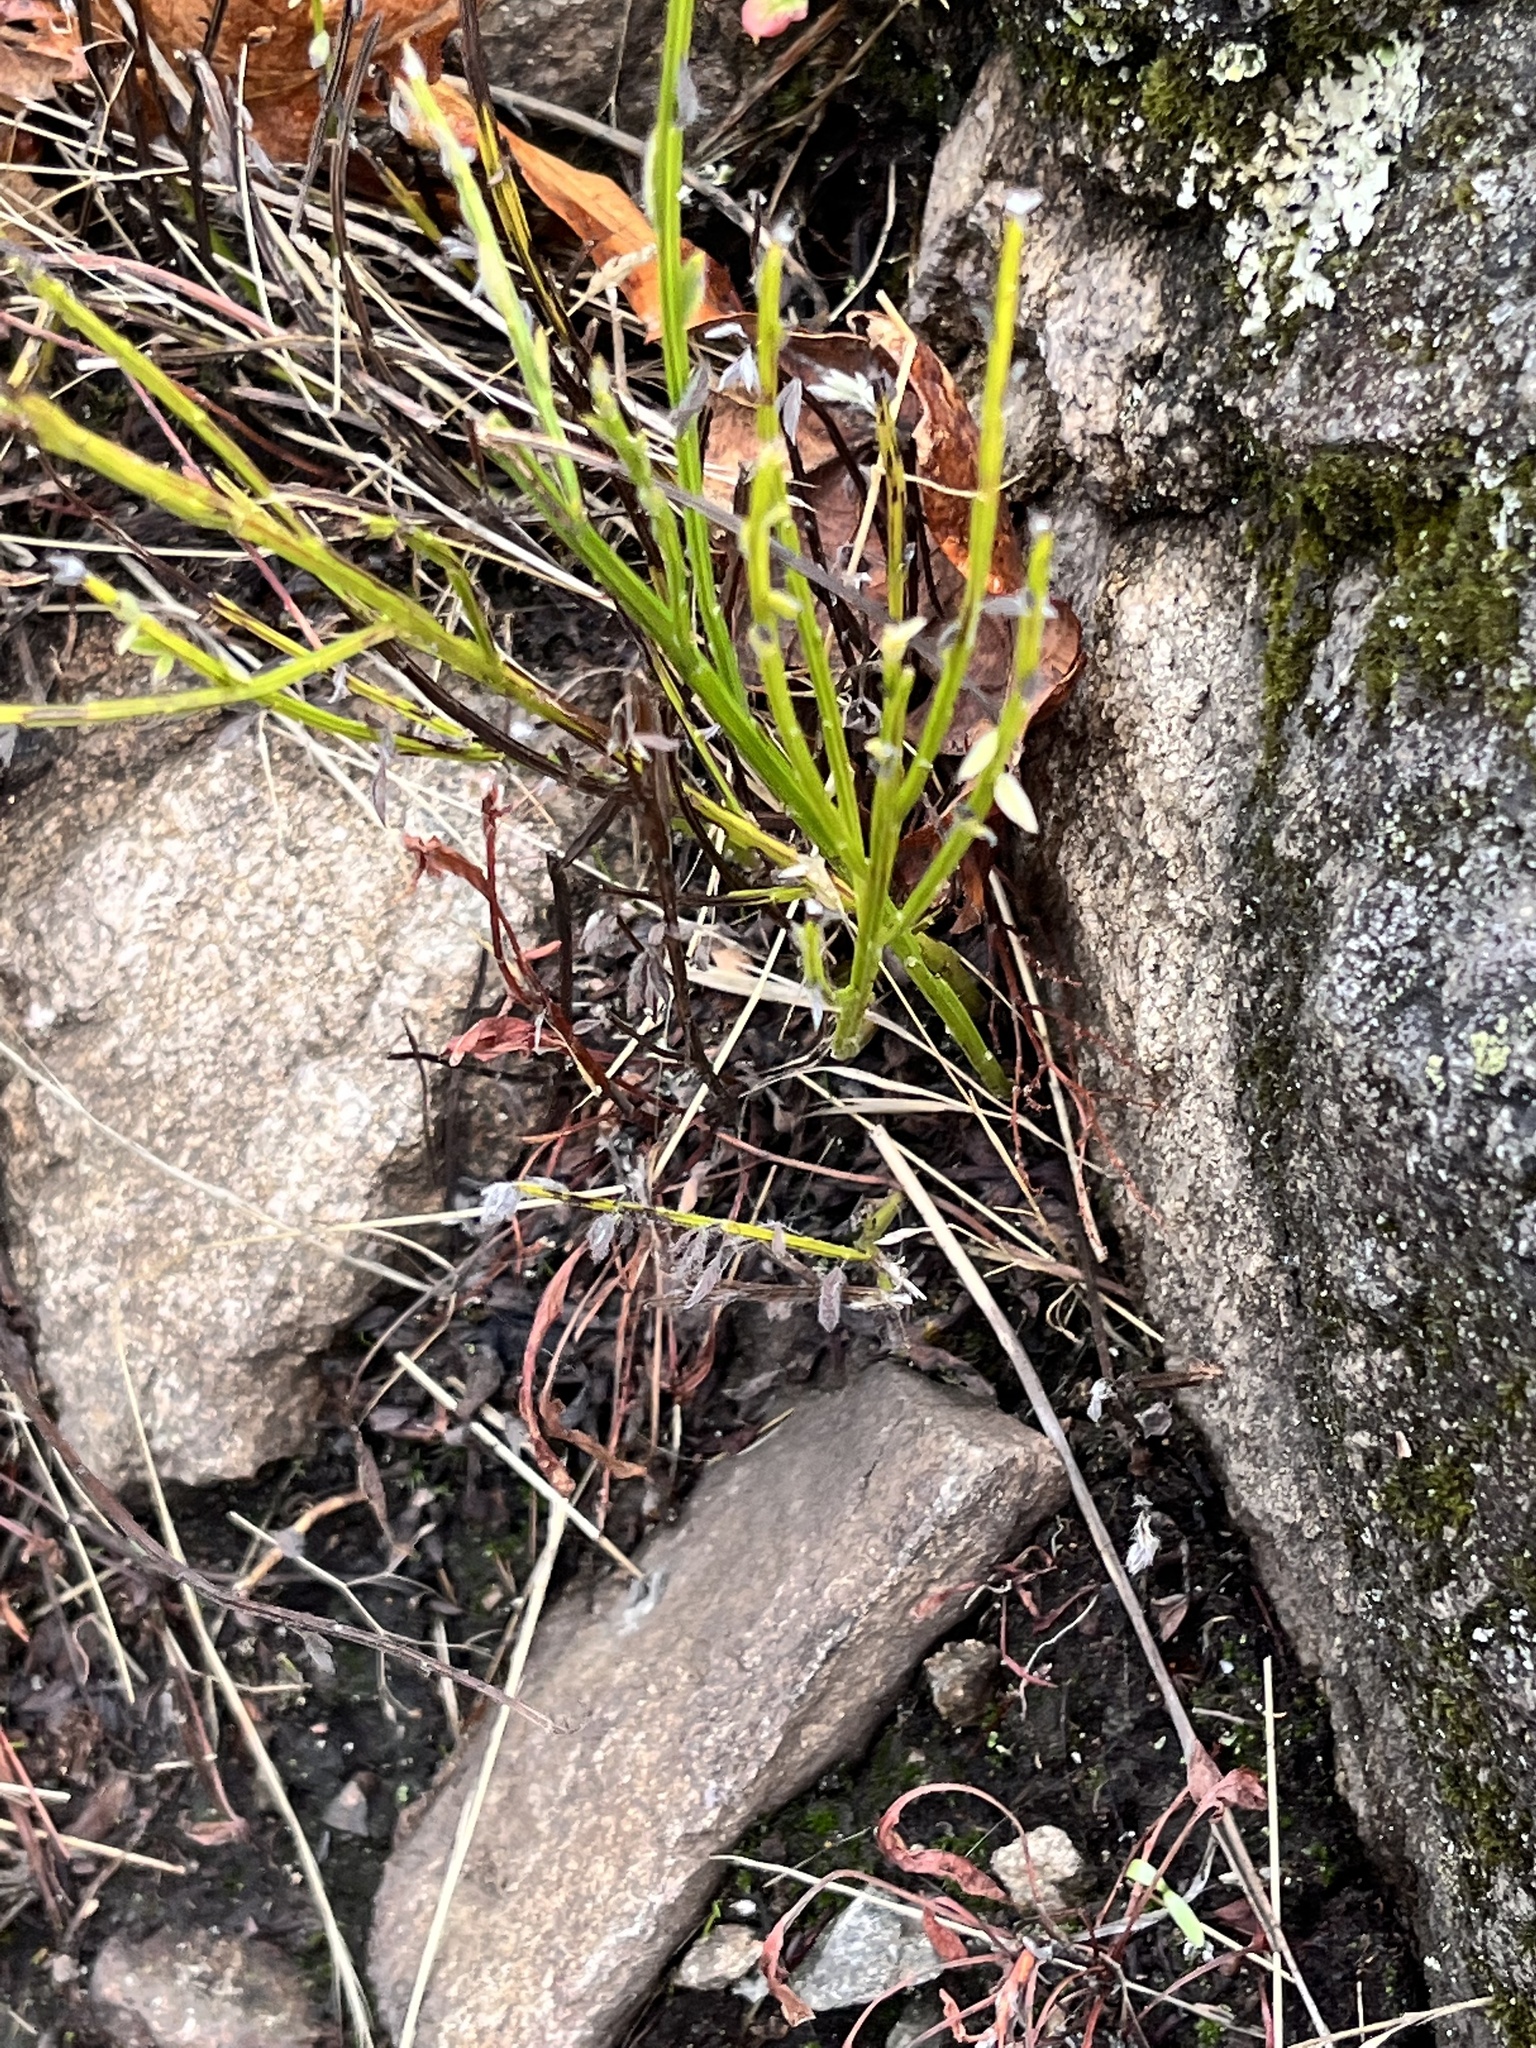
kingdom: Plantae
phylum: Tracheophyta
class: Magnoliopsida
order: Fabales
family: Fabaceae
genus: Cytisus
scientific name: Cytisus scoparius
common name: Scotch broom
